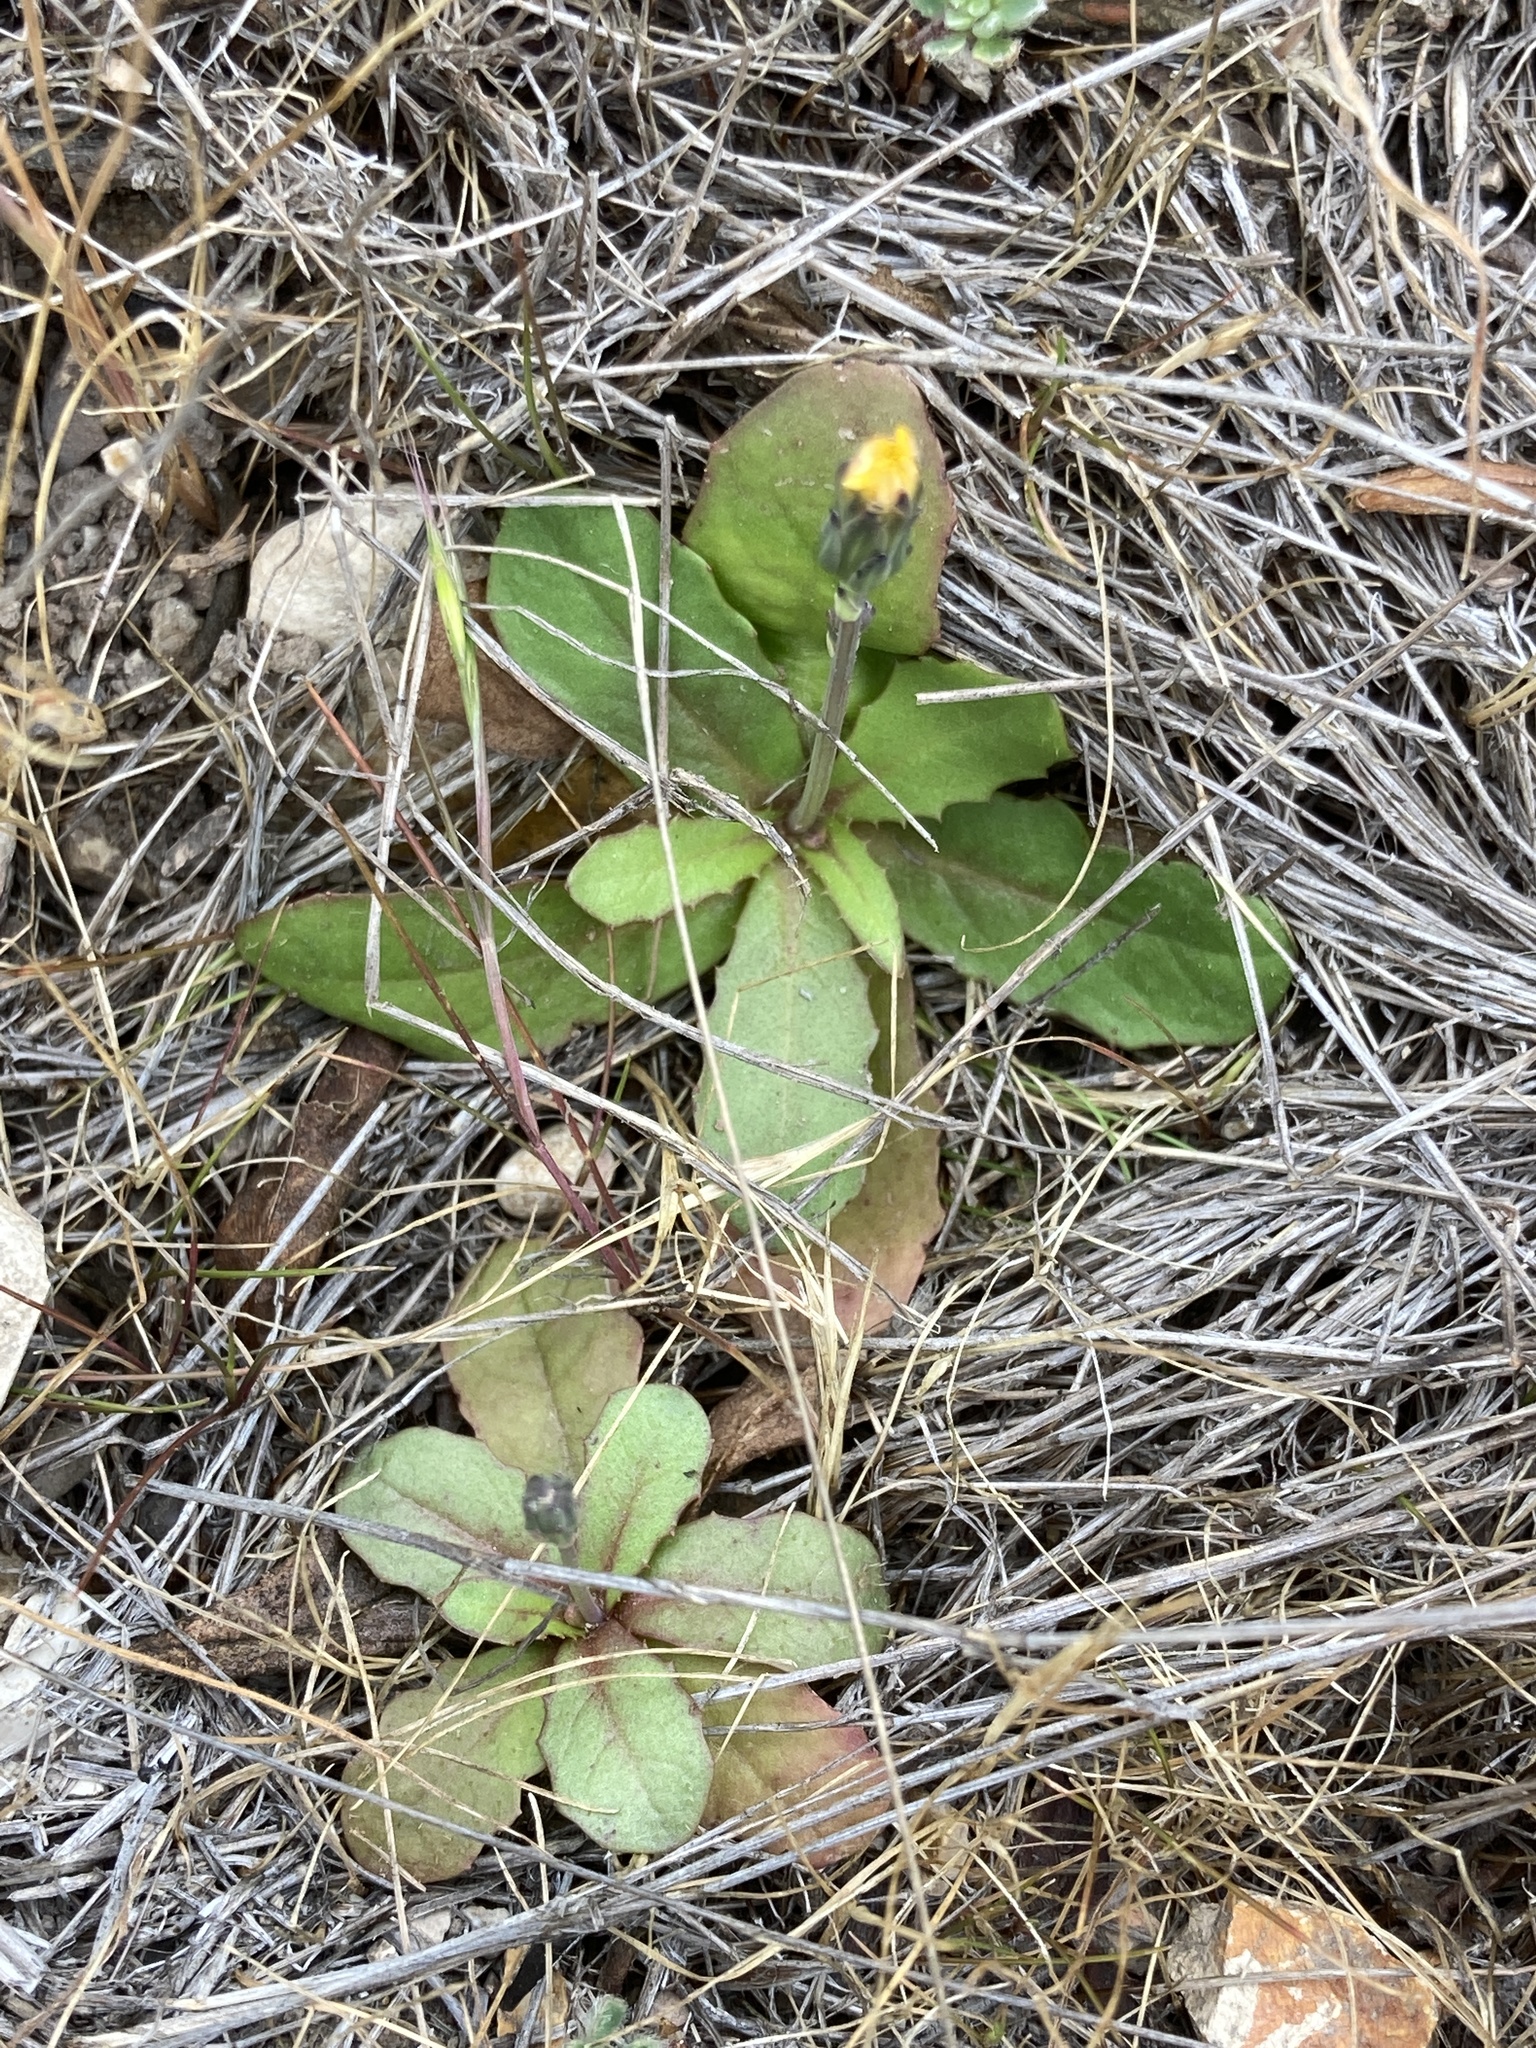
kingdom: Plantae
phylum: Tracheophyta
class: Magnoliopsida
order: Asterales
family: Asteraceae
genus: Hypochaeris
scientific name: Hypochaeris glabra
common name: Smooth catsear
